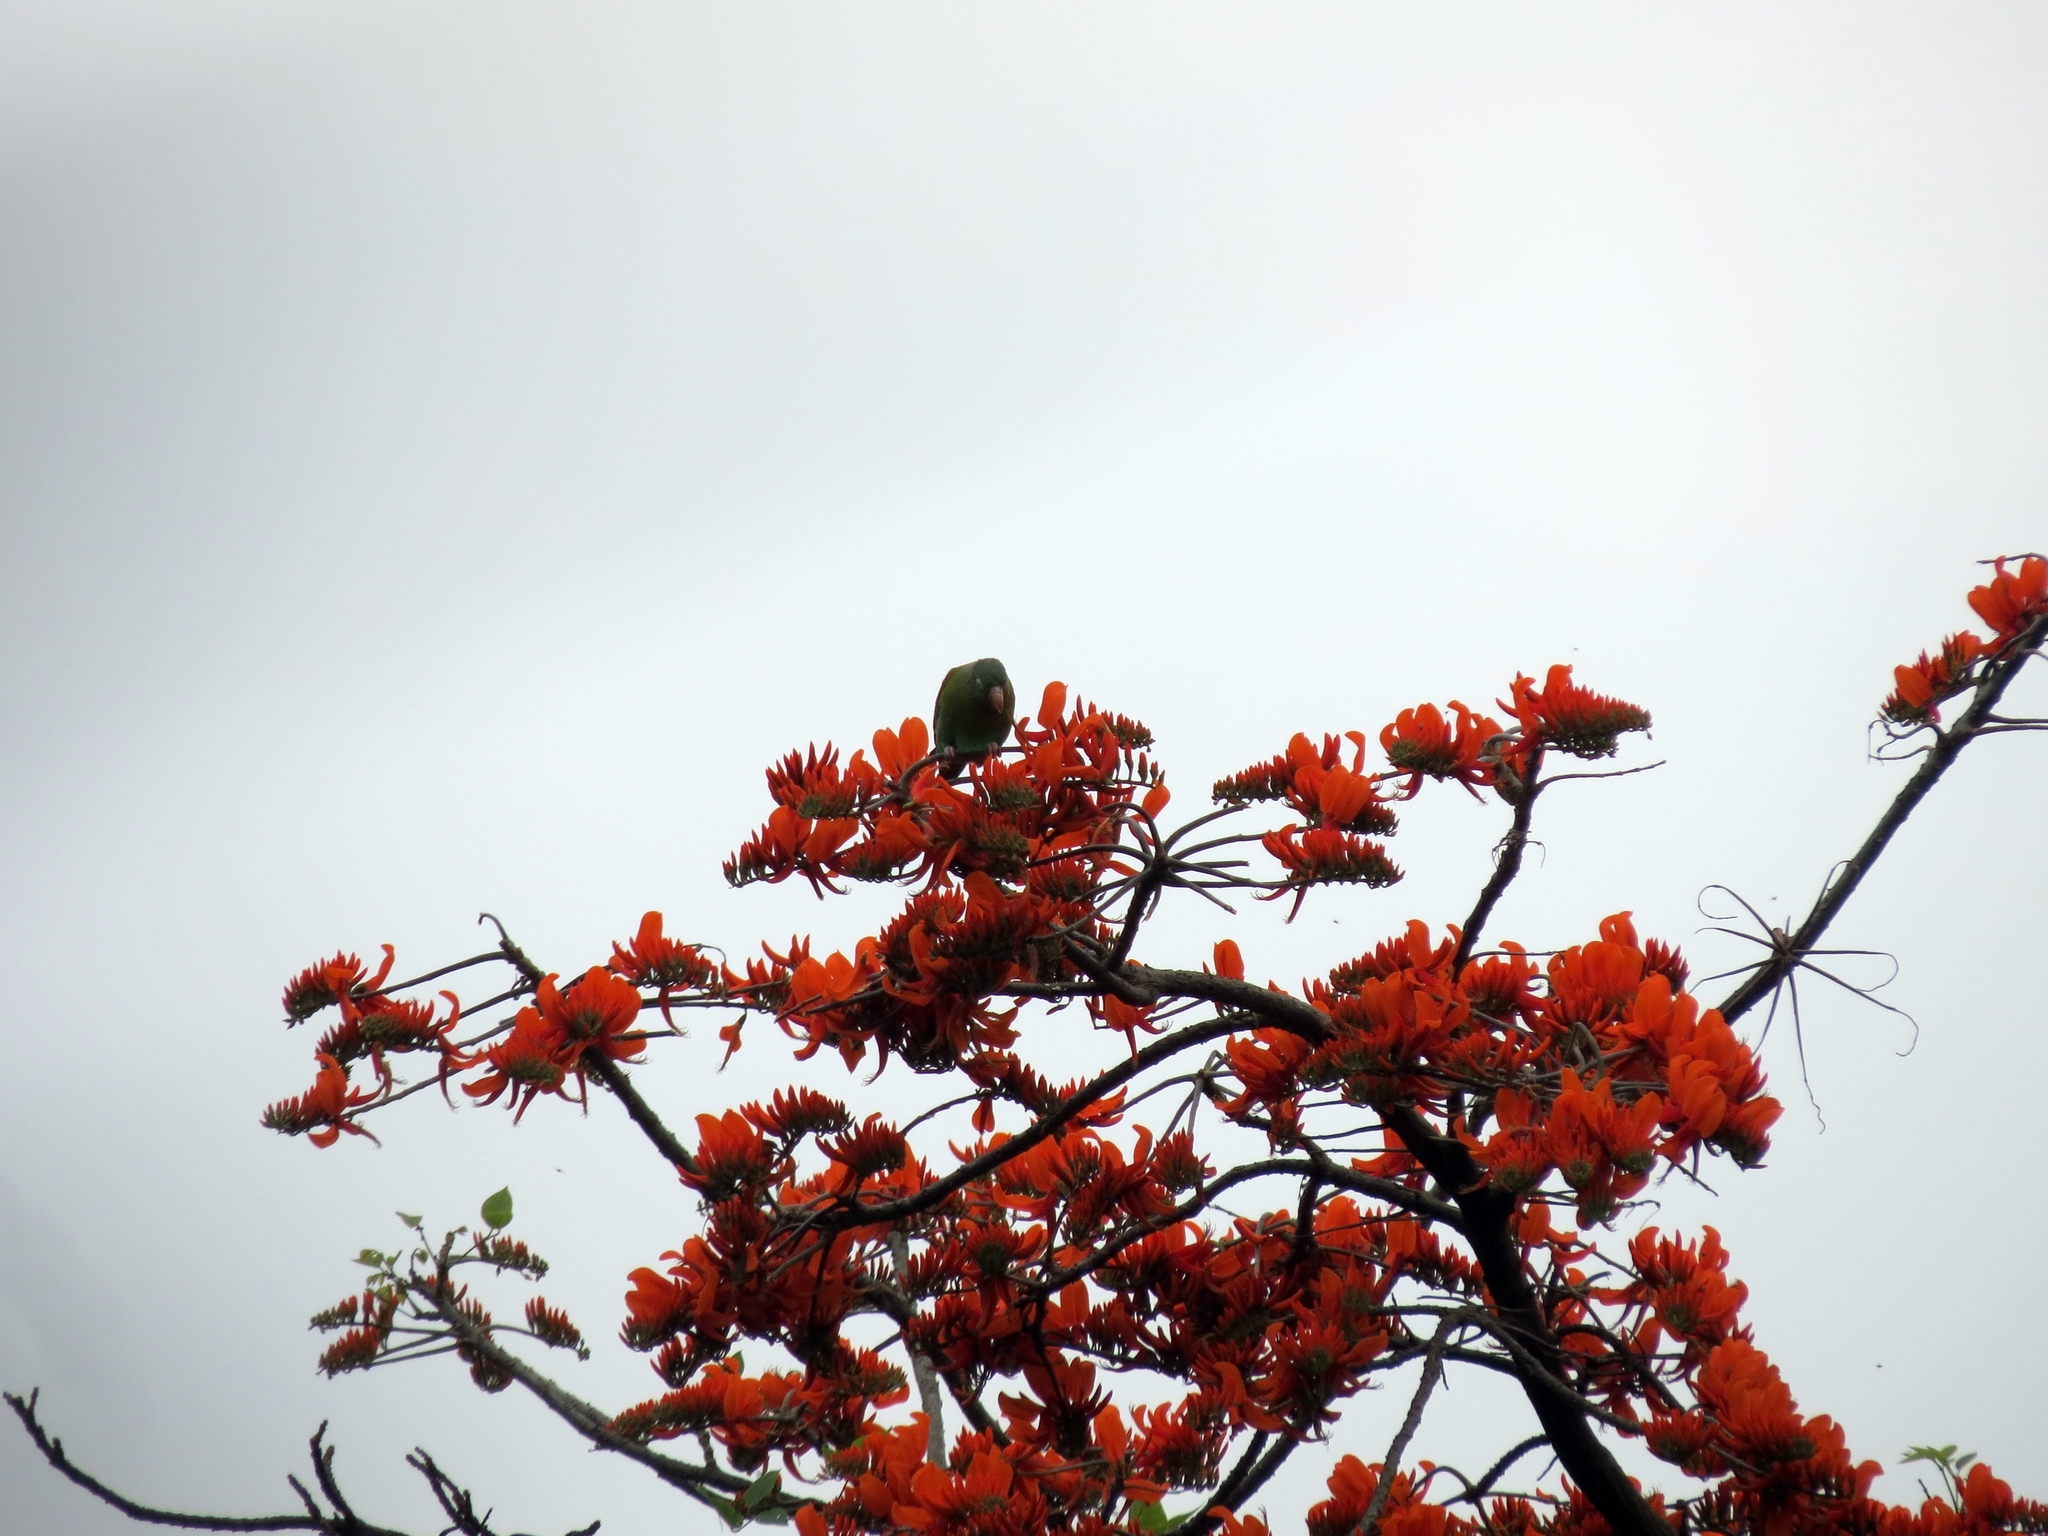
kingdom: Animalia
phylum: Chordata
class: Aves
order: Psittaciformes
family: Psittacidae
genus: Brotogeris
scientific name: Brotogeris jugularis
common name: Orange-chinned parakeet
